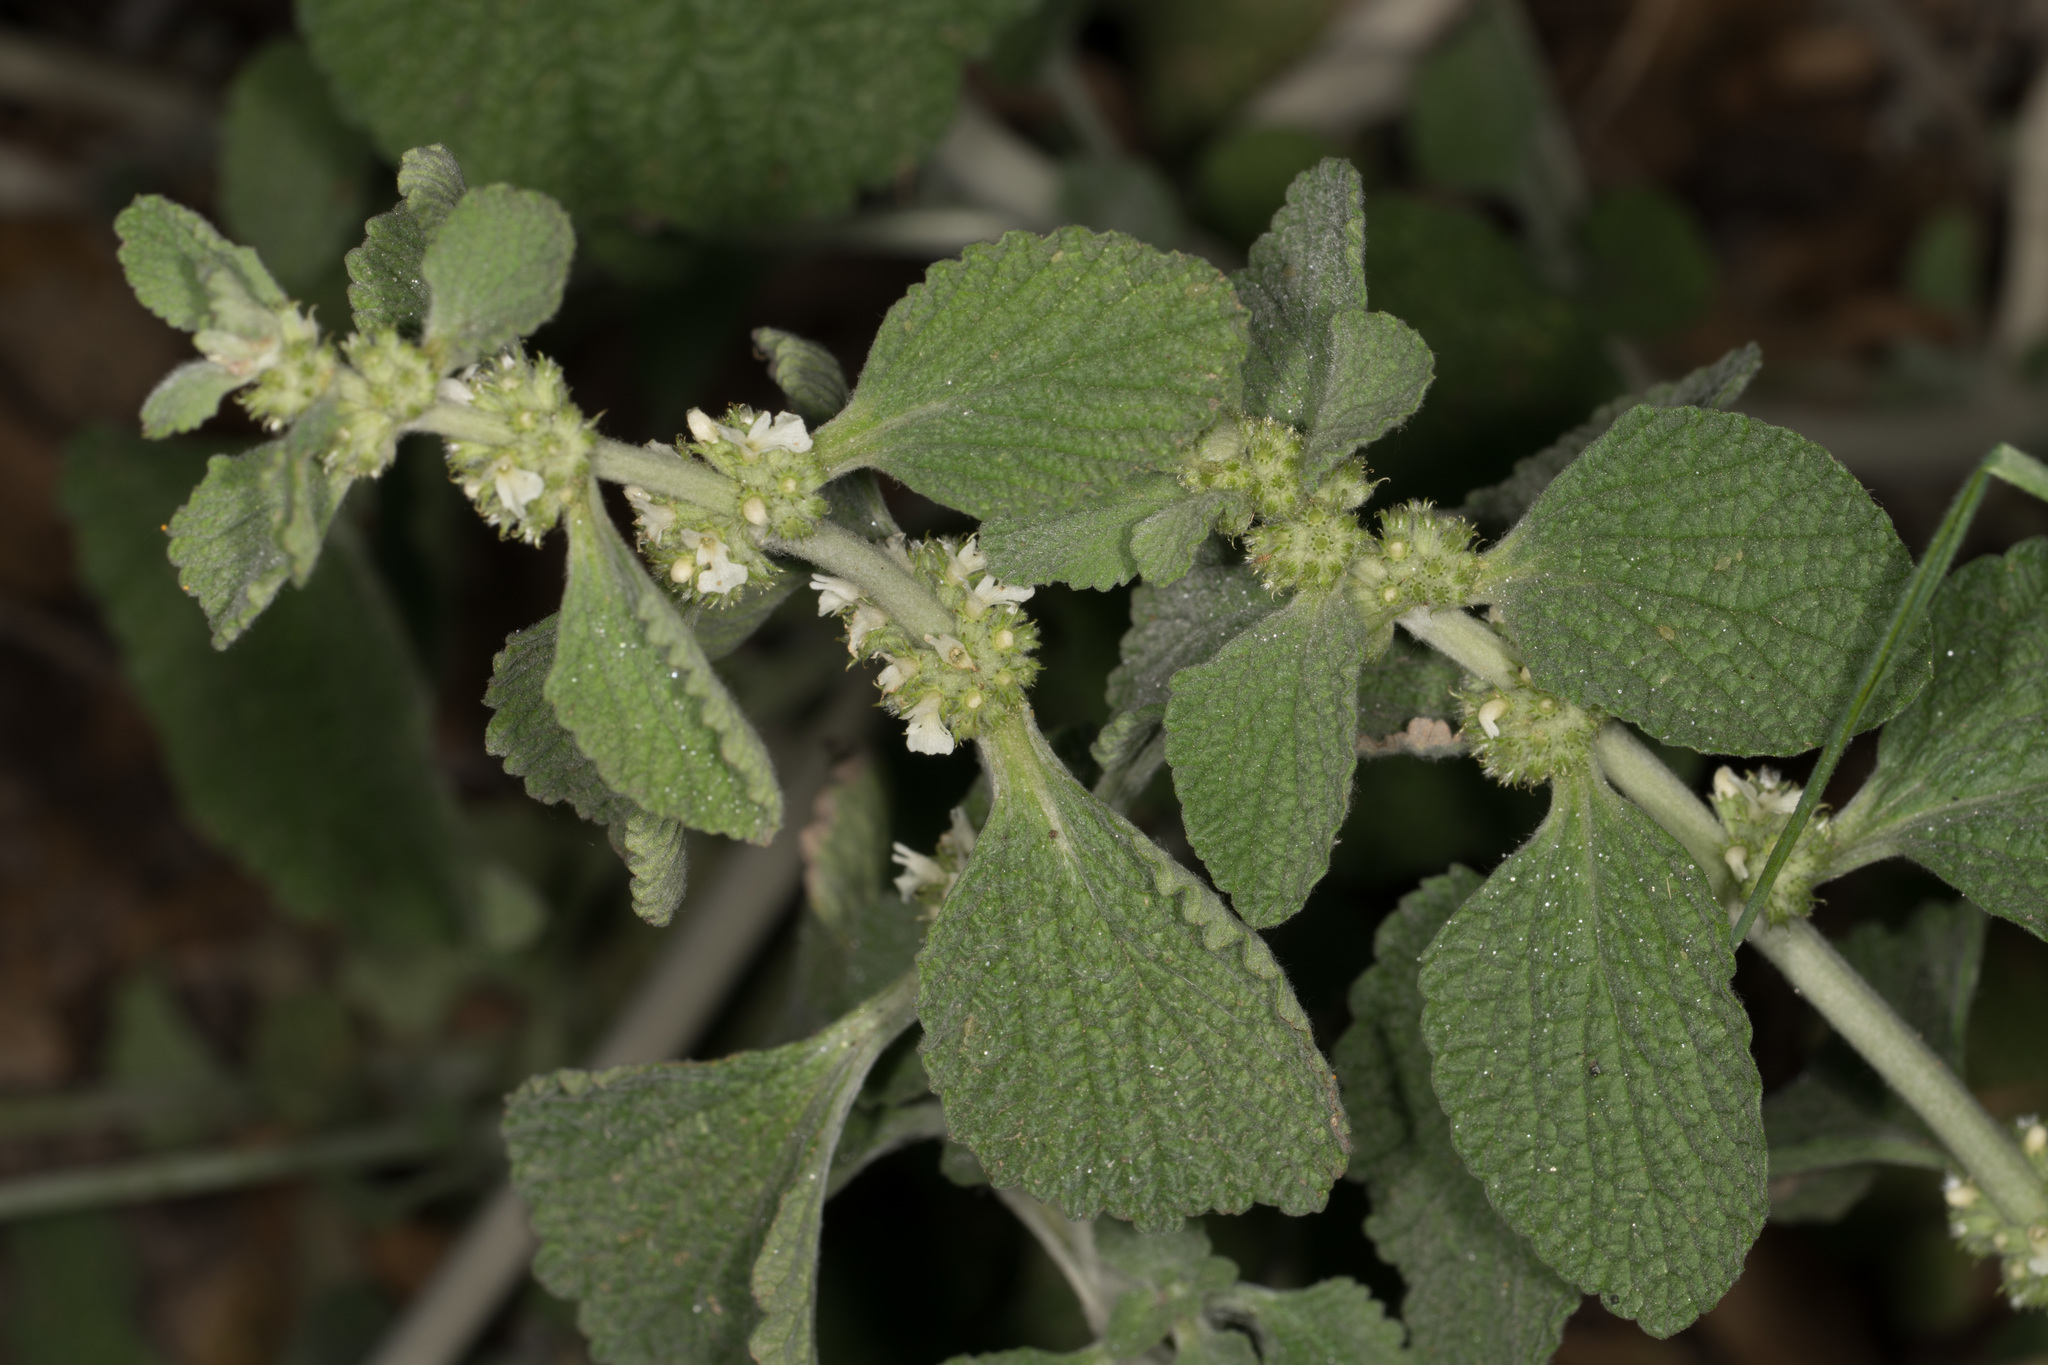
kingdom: Plantae
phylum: Tracheophyta
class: Magnoliopsida
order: Lamiales
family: Lamiaceae
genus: Marrubium
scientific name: Marrubium vulgare
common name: Horehound
